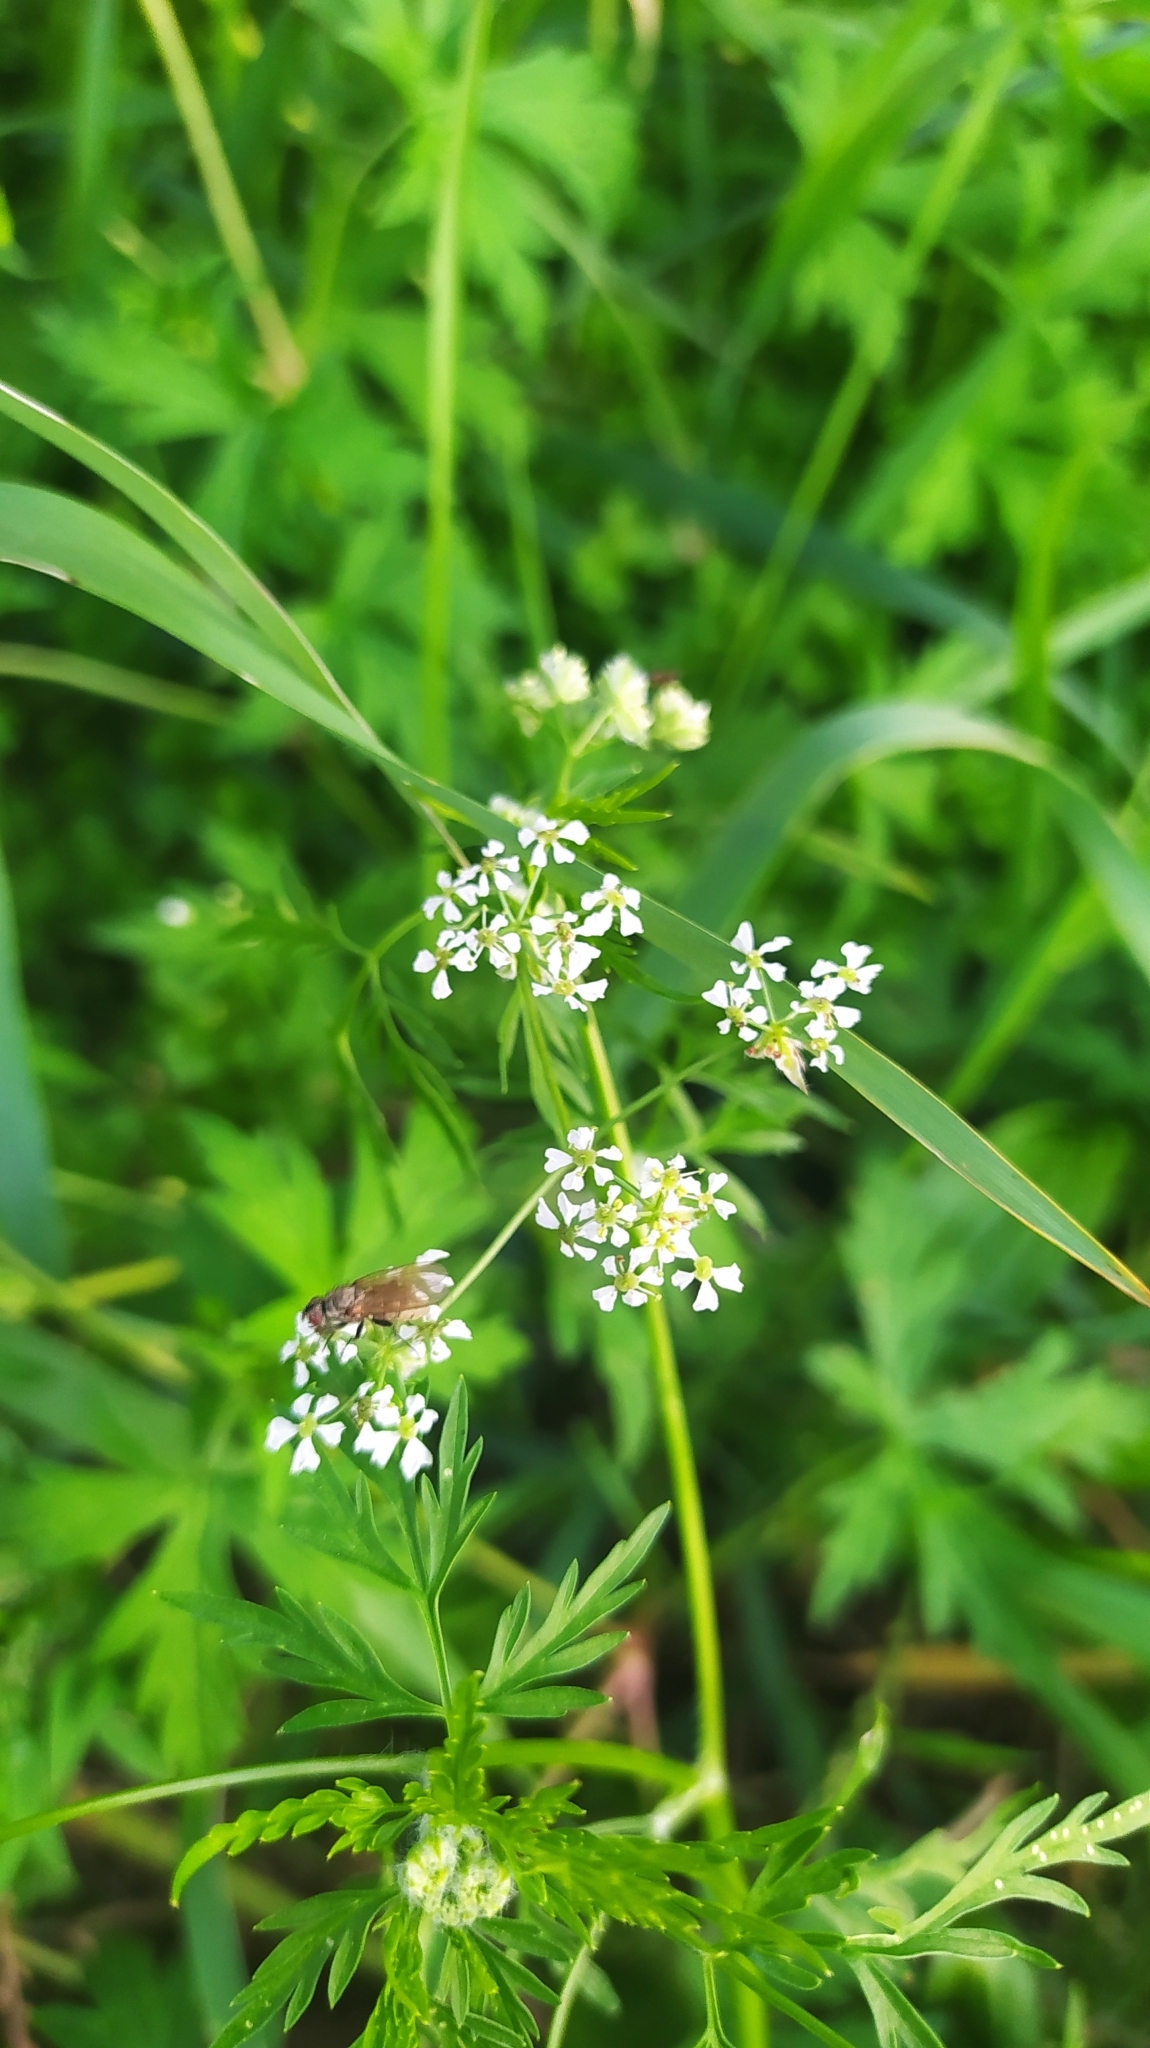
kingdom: Plantae
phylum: Tracheophyta
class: Magnoliopsida
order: Apiales
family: Apiaceae
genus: Sphallerocarpus
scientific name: Sphallerocarpus gracilis
